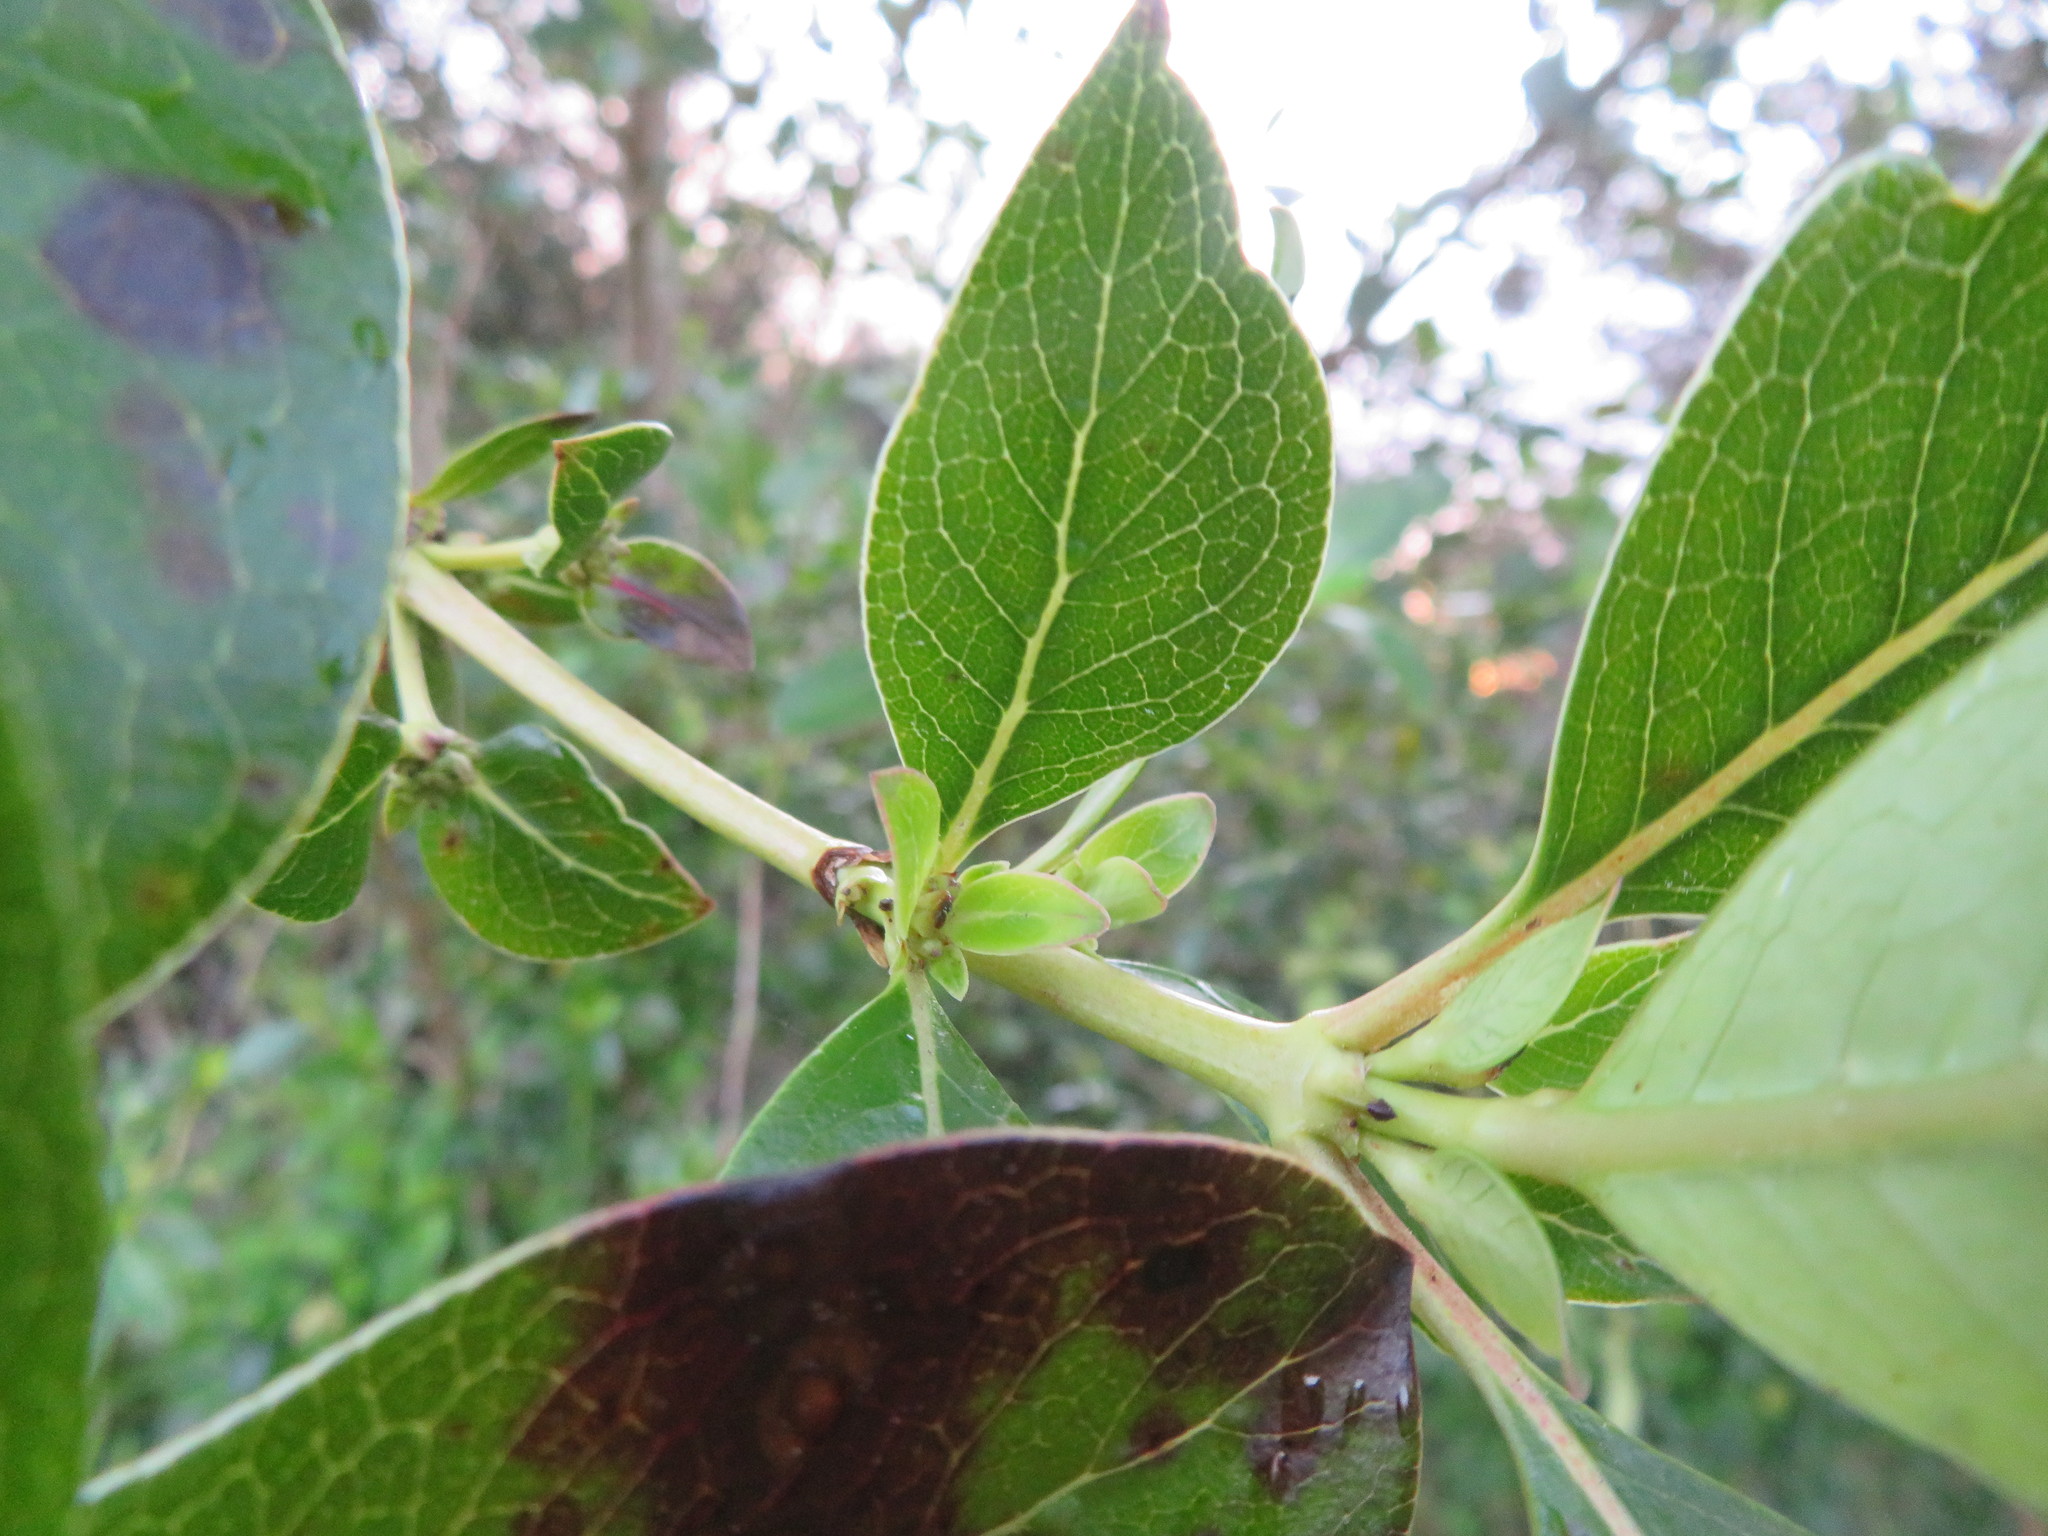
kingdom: Plantae
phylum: Tracheophyta
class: Magnoliopsida
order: Gentianales
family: Rubiaceae
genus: Coprosma
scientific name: Coprosma robusta
